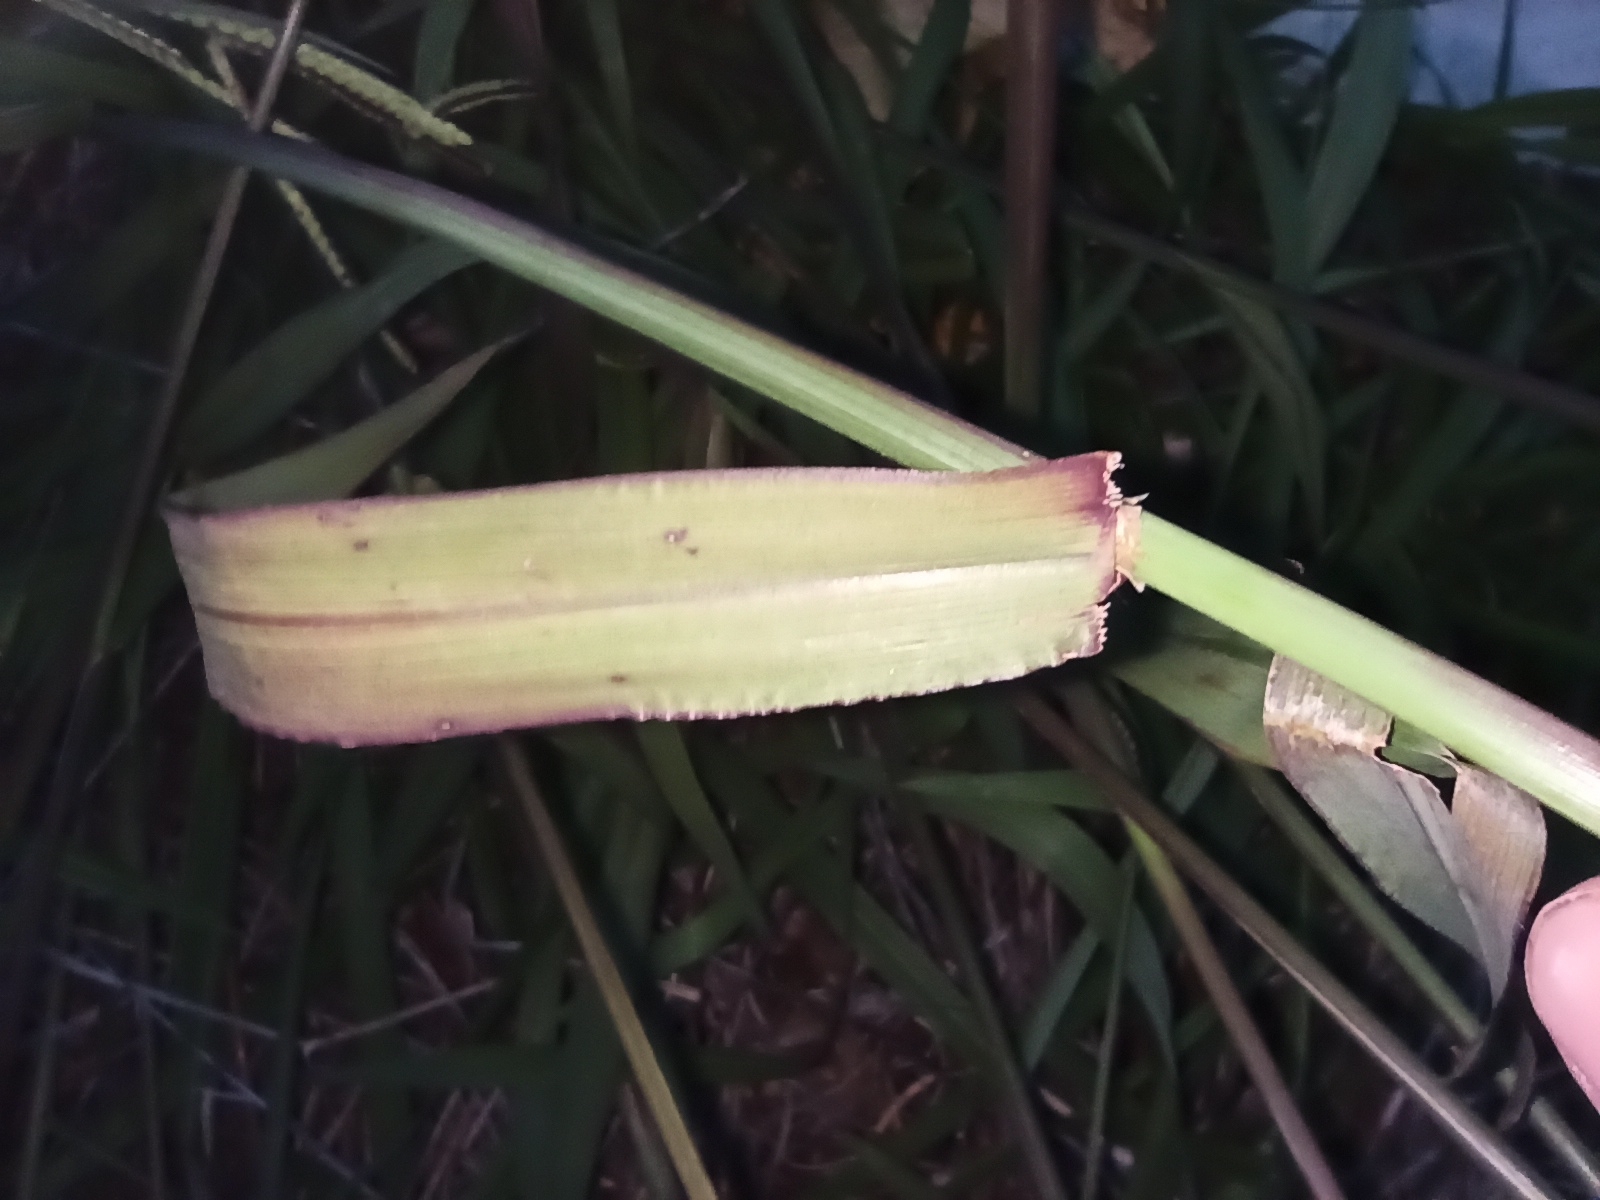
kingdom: Plantae
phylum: Tracheophyta
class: Liliopsida
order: Poales
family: Poaceae
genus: Paspalum
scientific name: Paspalum dilatatum
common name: Dallisgrass
